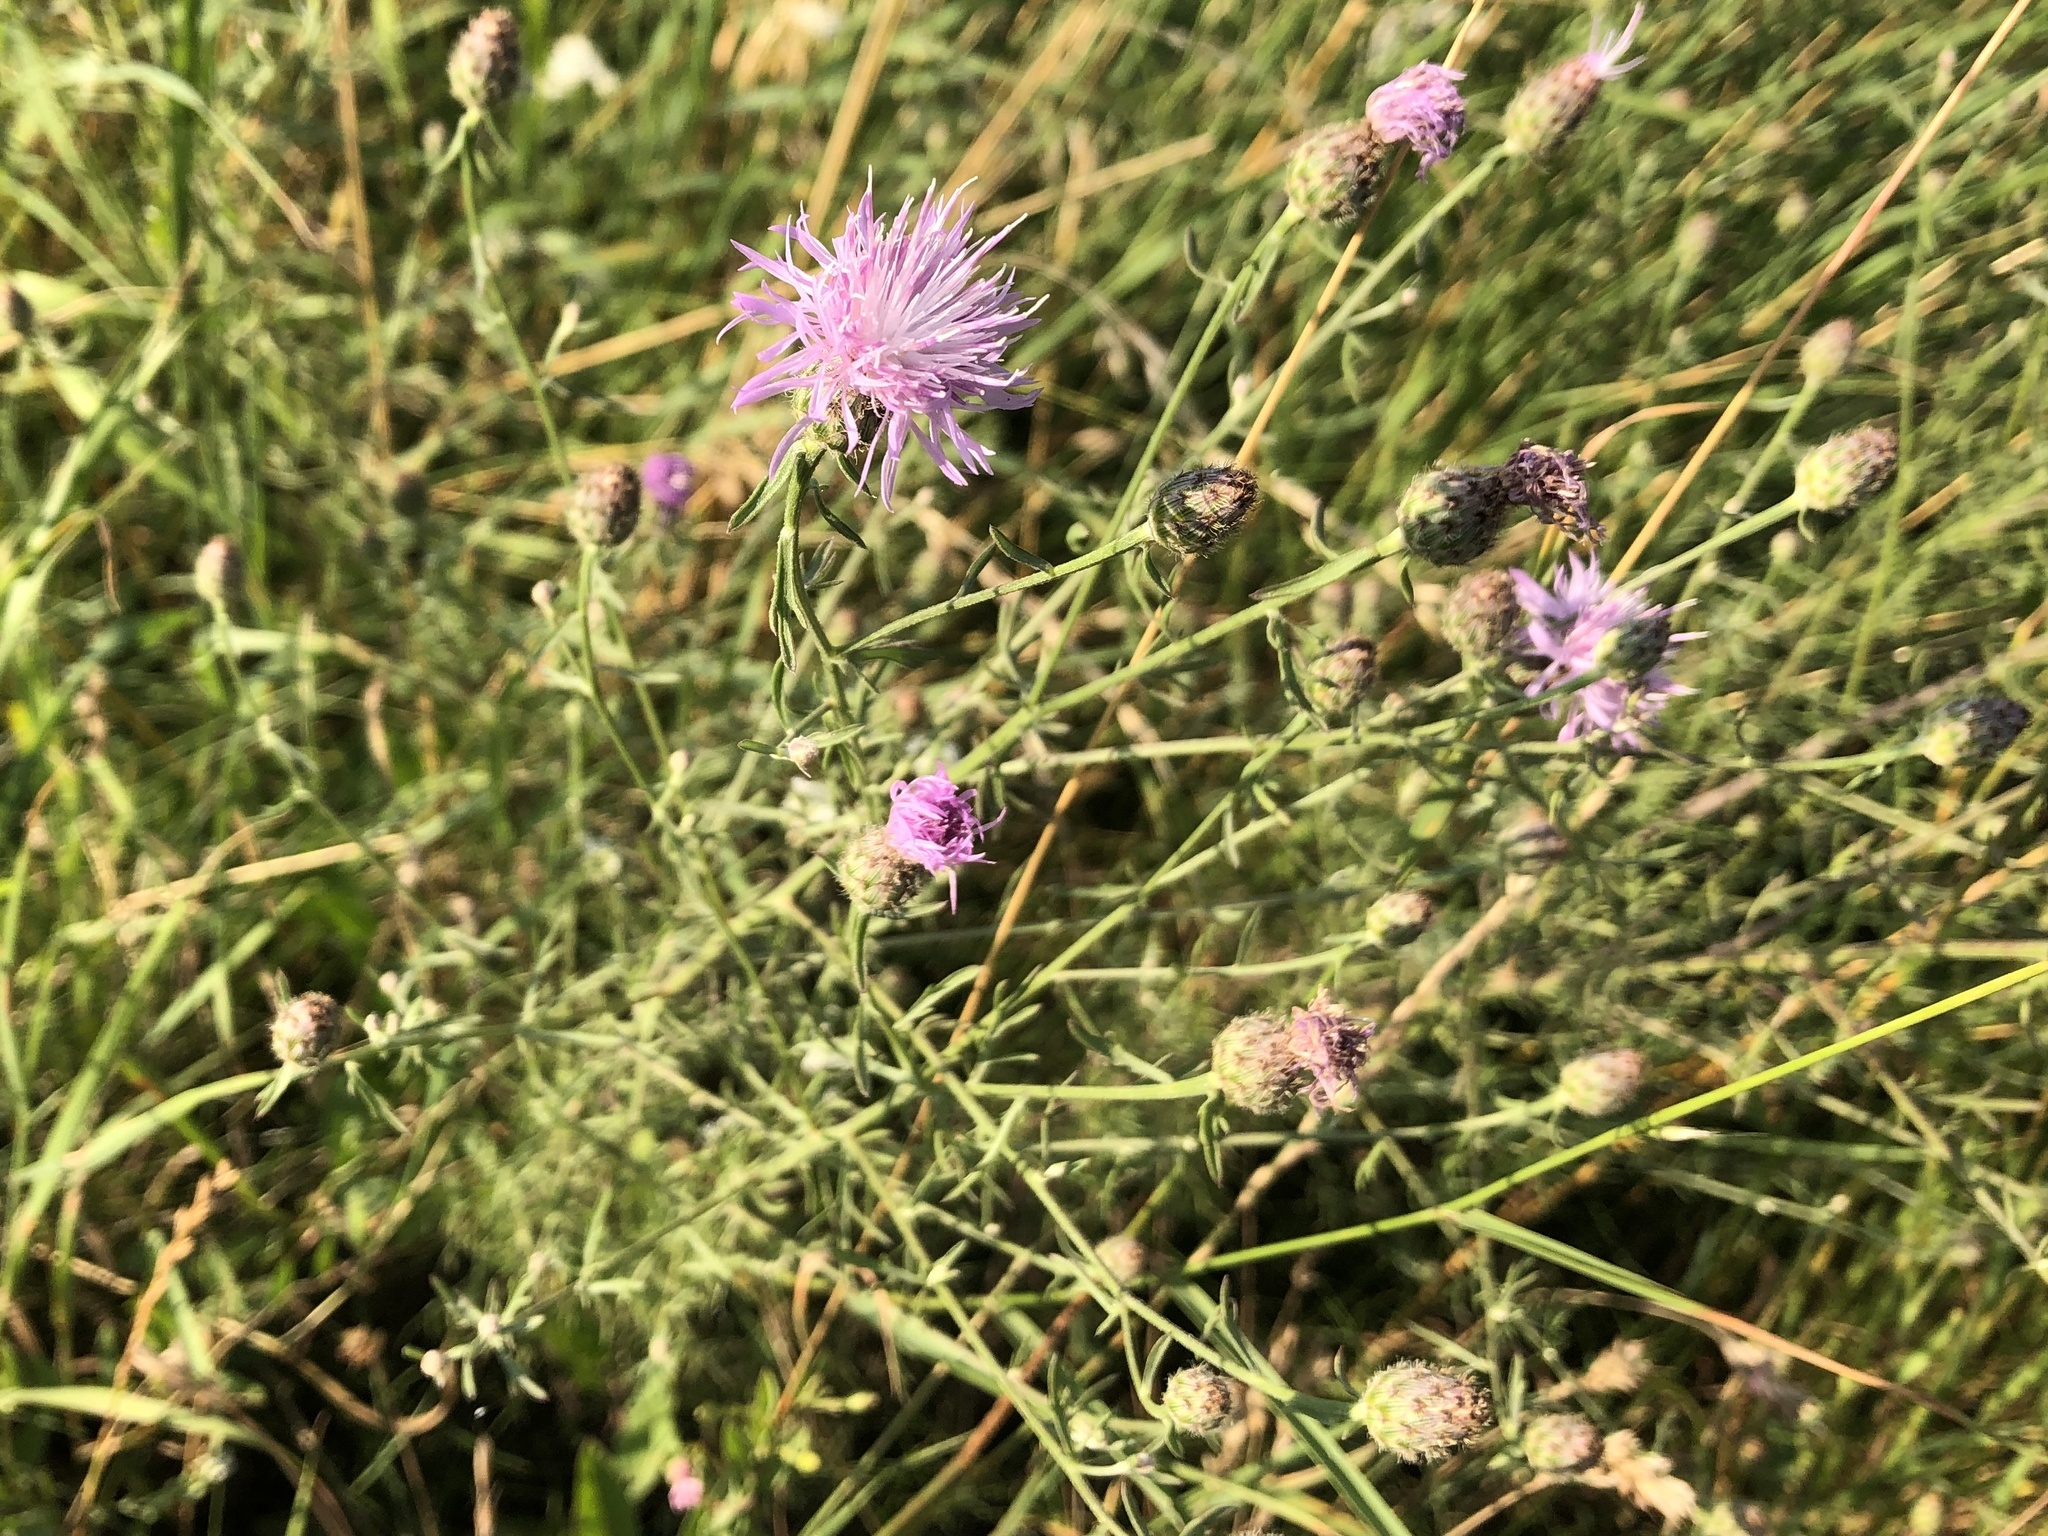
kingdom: Plantae
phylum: Tracheophyta
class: Magnoliopsida
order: Asterales
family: Asteraceae
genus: Centaurea
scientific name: Centaurea stoebe
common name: Spotted knapweed
